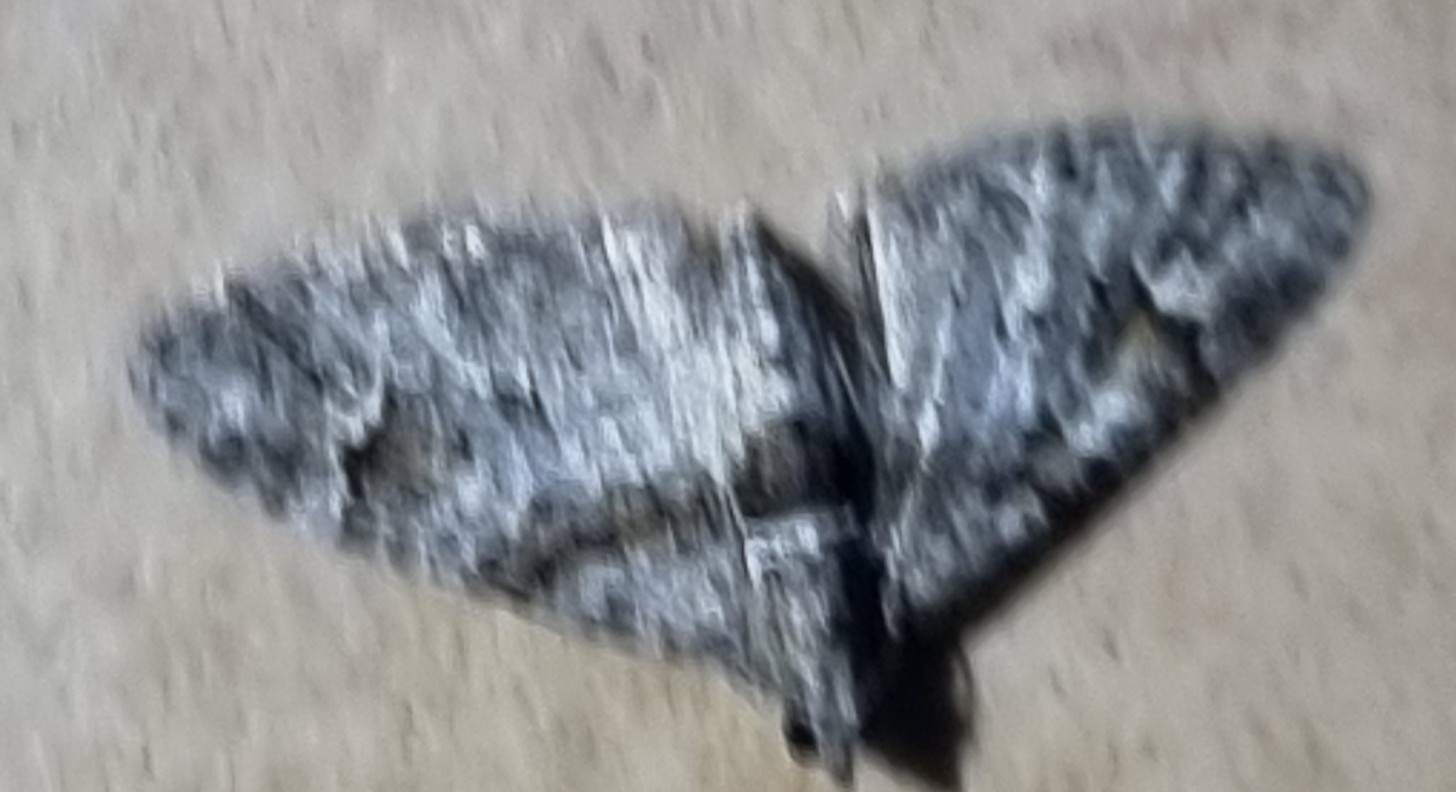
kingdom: Animalia
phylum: Arthropoda
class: Insecta
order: Lepidoptera
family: Geometridae
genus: Phrissogonus
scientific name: Phrissogonus laticostata
